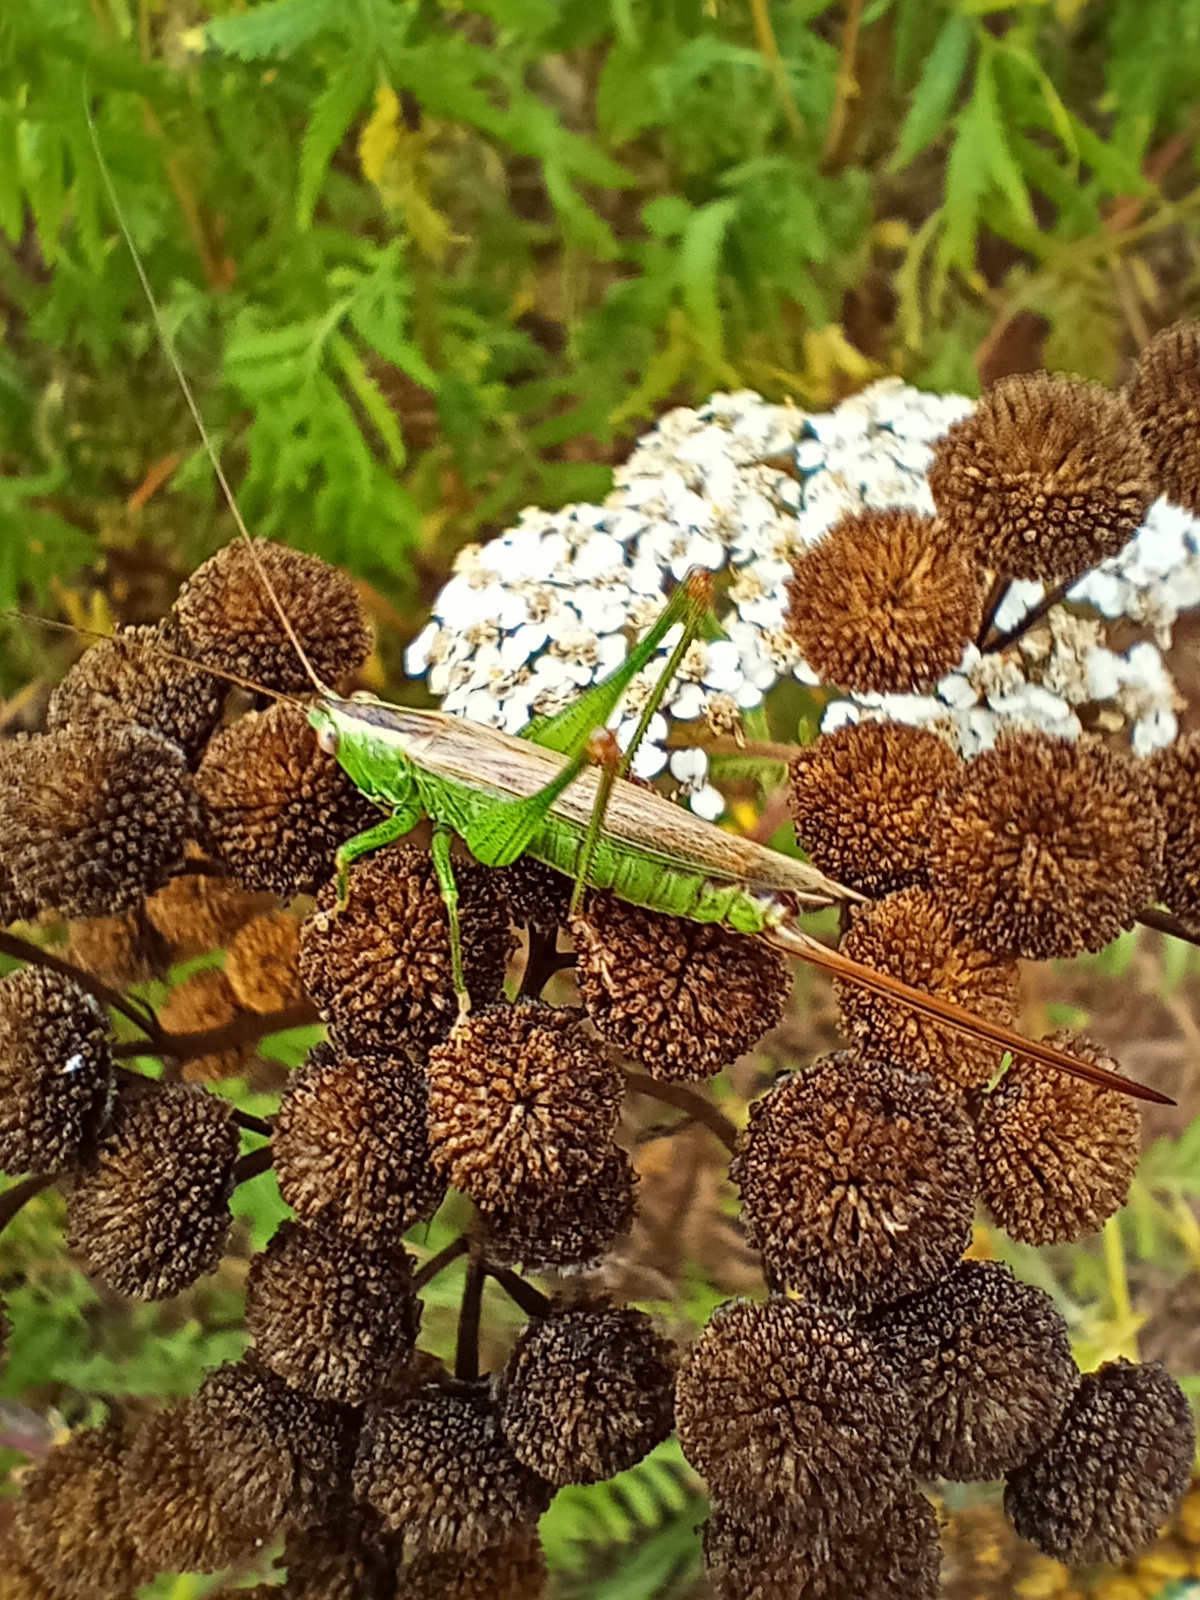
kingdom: Animalia
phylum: Arthropoda
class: Insecta
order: Orthoptera
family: Tettigoniidae
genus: Conocephalus
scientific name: Conocephalus fuscus
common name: Long-winged conehead
